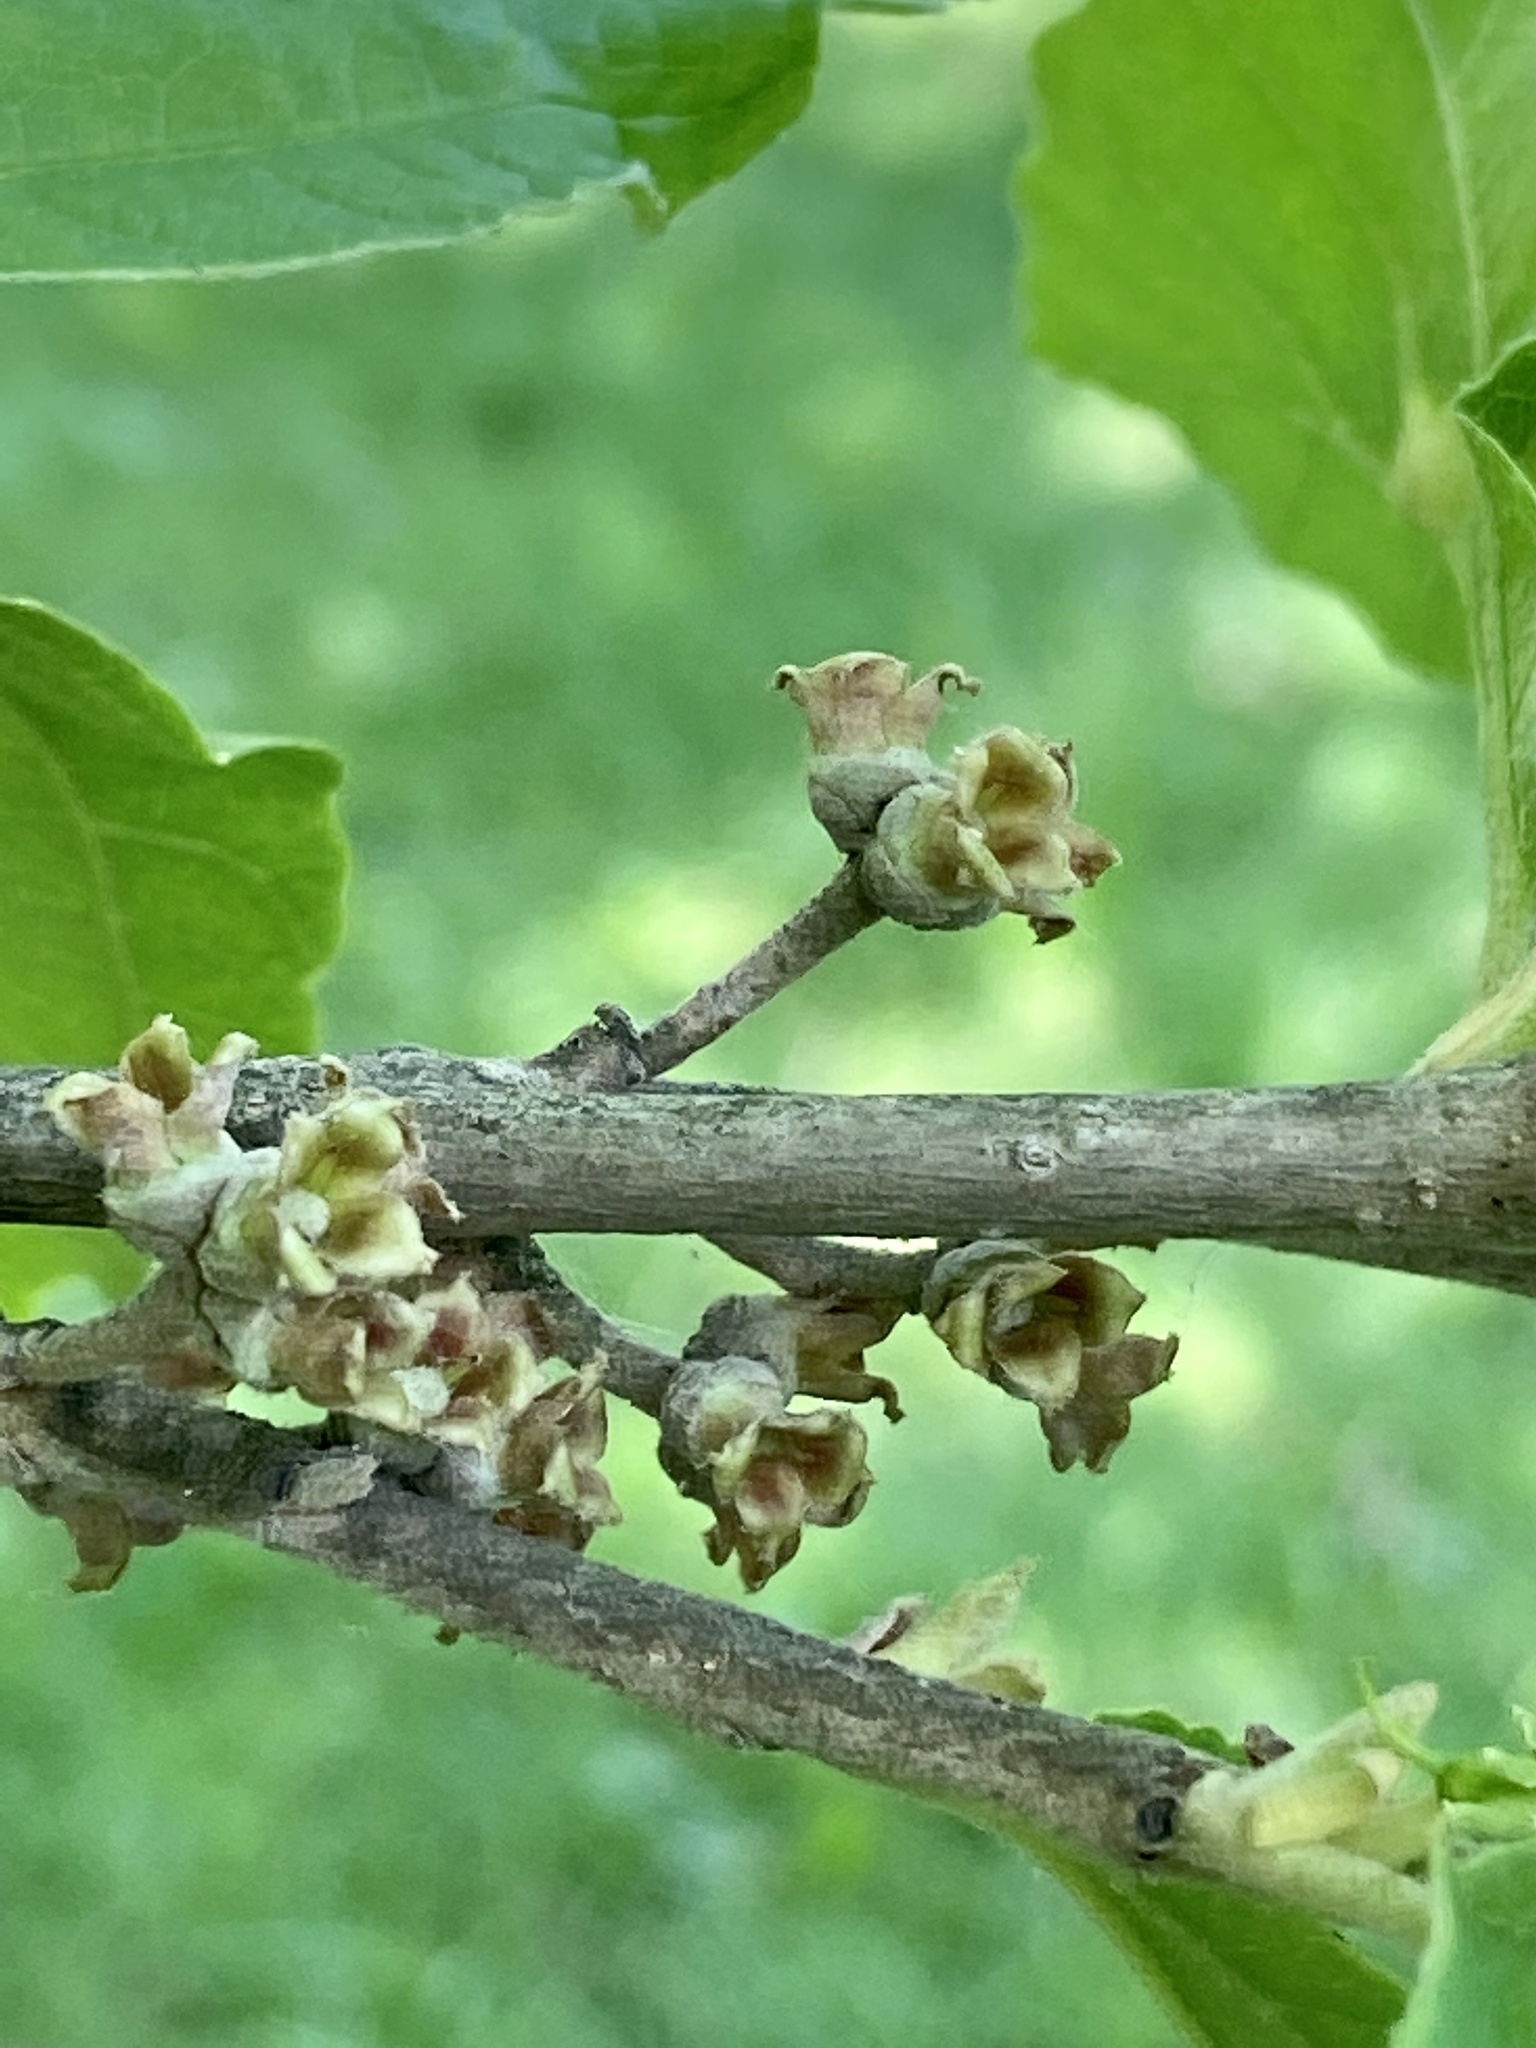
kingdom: Plantae
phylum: Tracheophyta
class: Magnoliopsida
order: Saxifragales
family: Hamamelidaceae
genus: Hamamelis
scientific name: Hamamelis virginiana
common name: Witch-hazel
